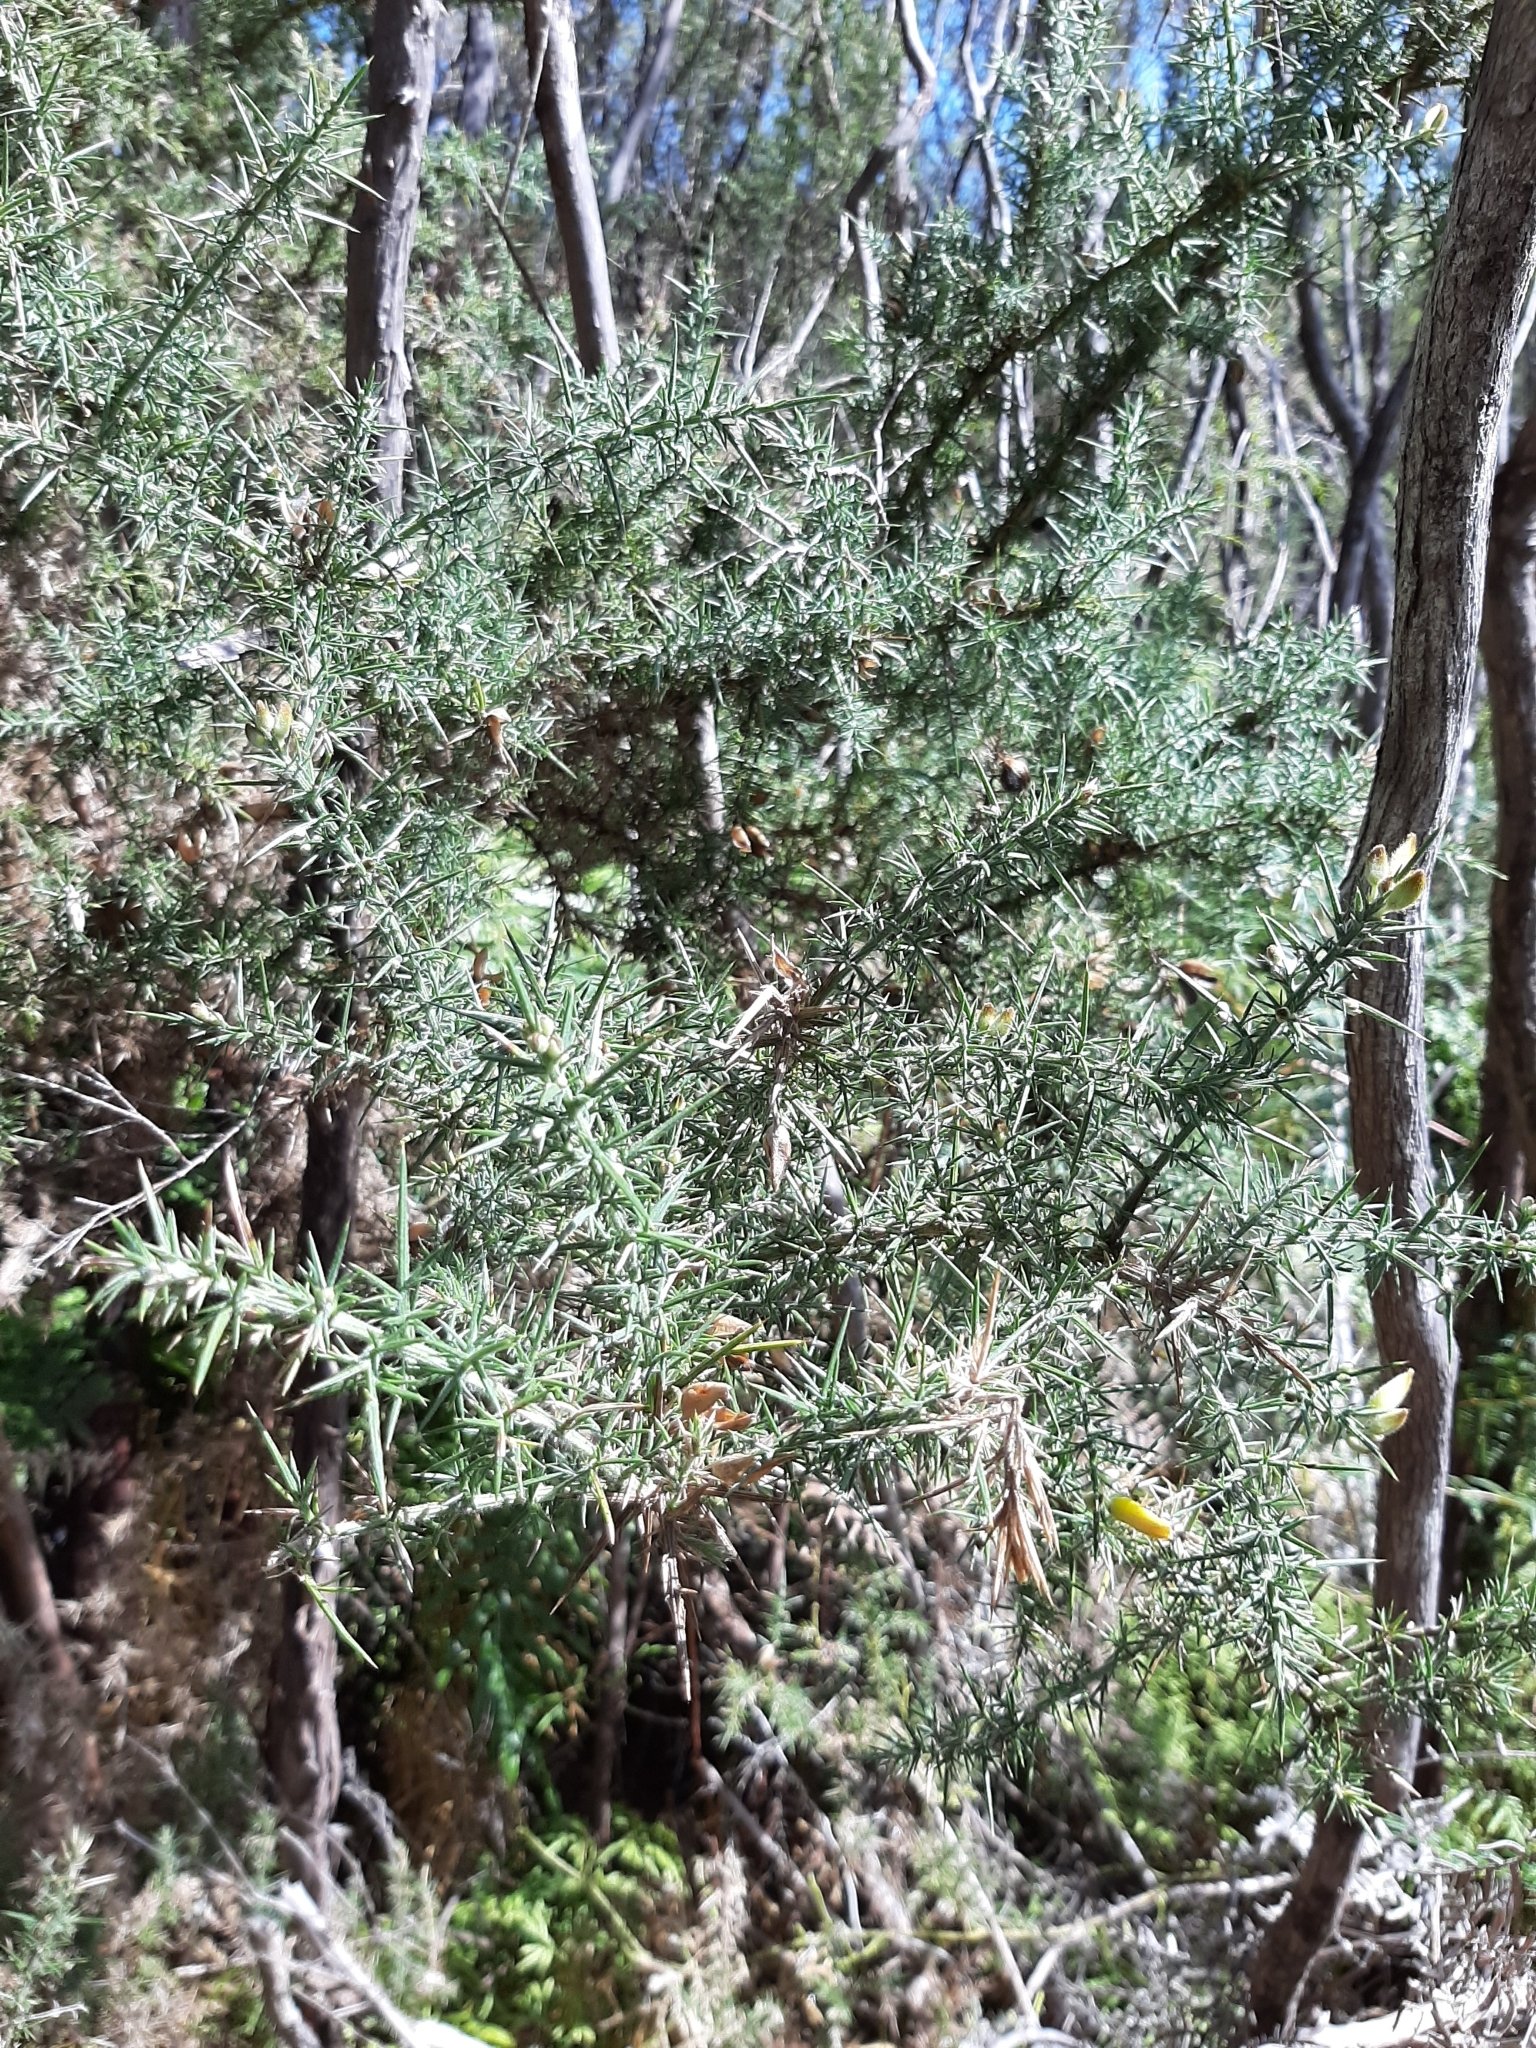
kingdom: Plantae
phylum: Tracheophyta
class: Magnoliopsida
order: Fabales
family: Fabaceae
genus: Ulex
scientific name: Ulex europaeus
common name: Common gorse
